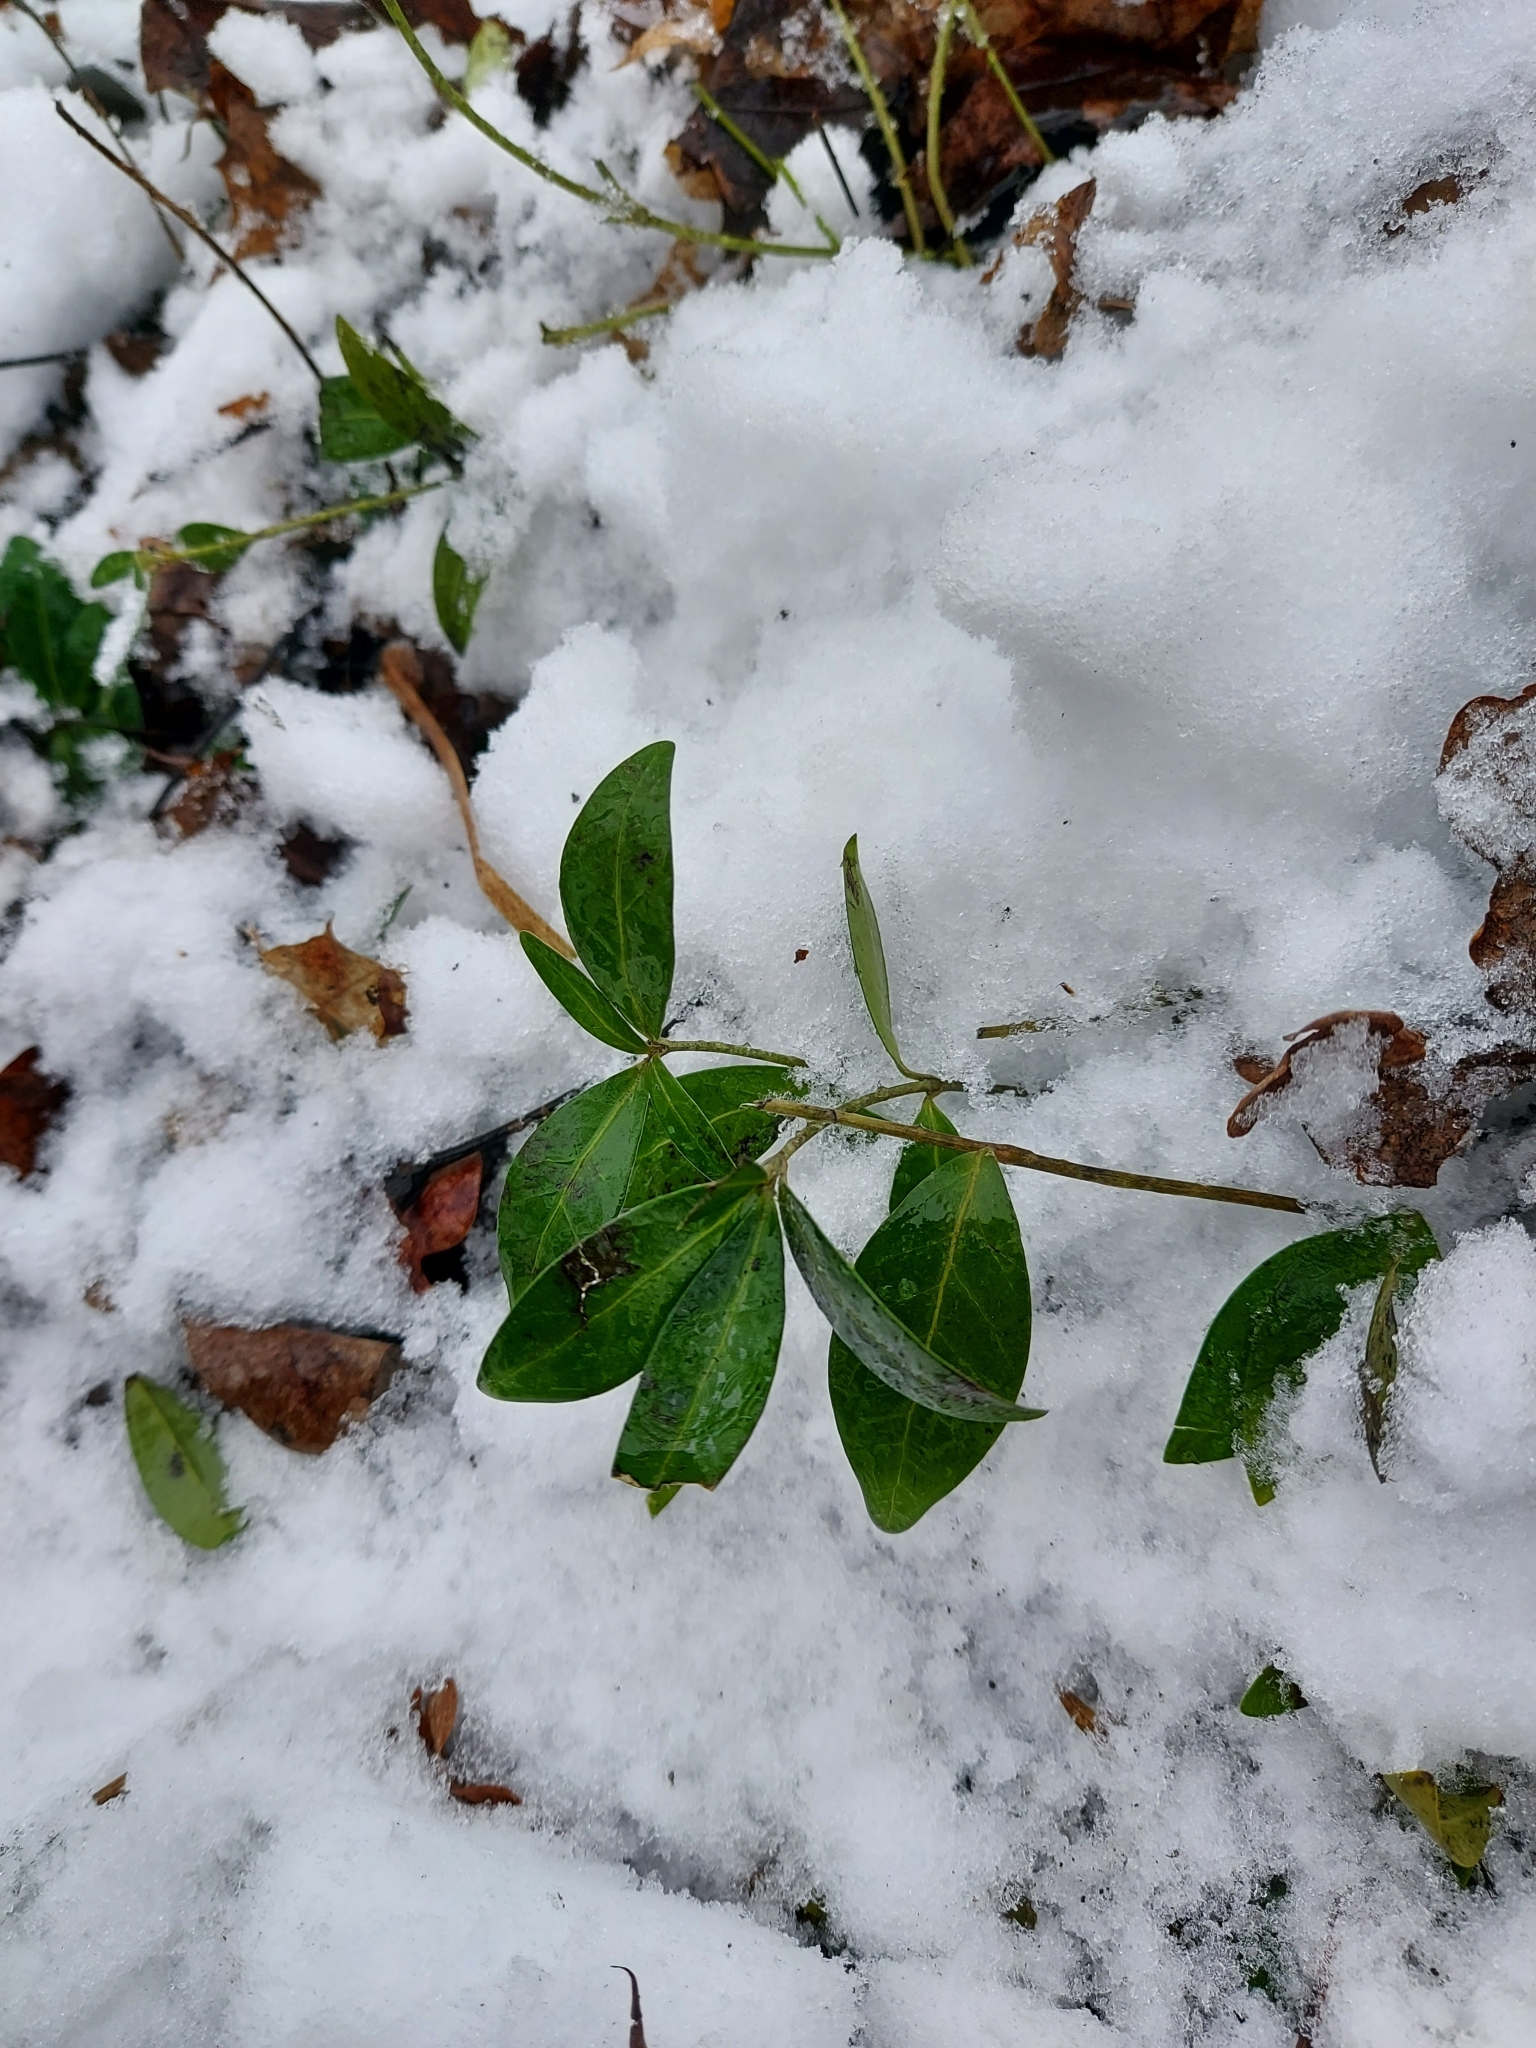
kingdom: Plantae
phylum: Tracheophyta
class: Magnoliopsida
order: Gentianales
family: Apocynaceae
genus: Vinca
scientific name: Vinca minor
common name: Lesser periwinkle
